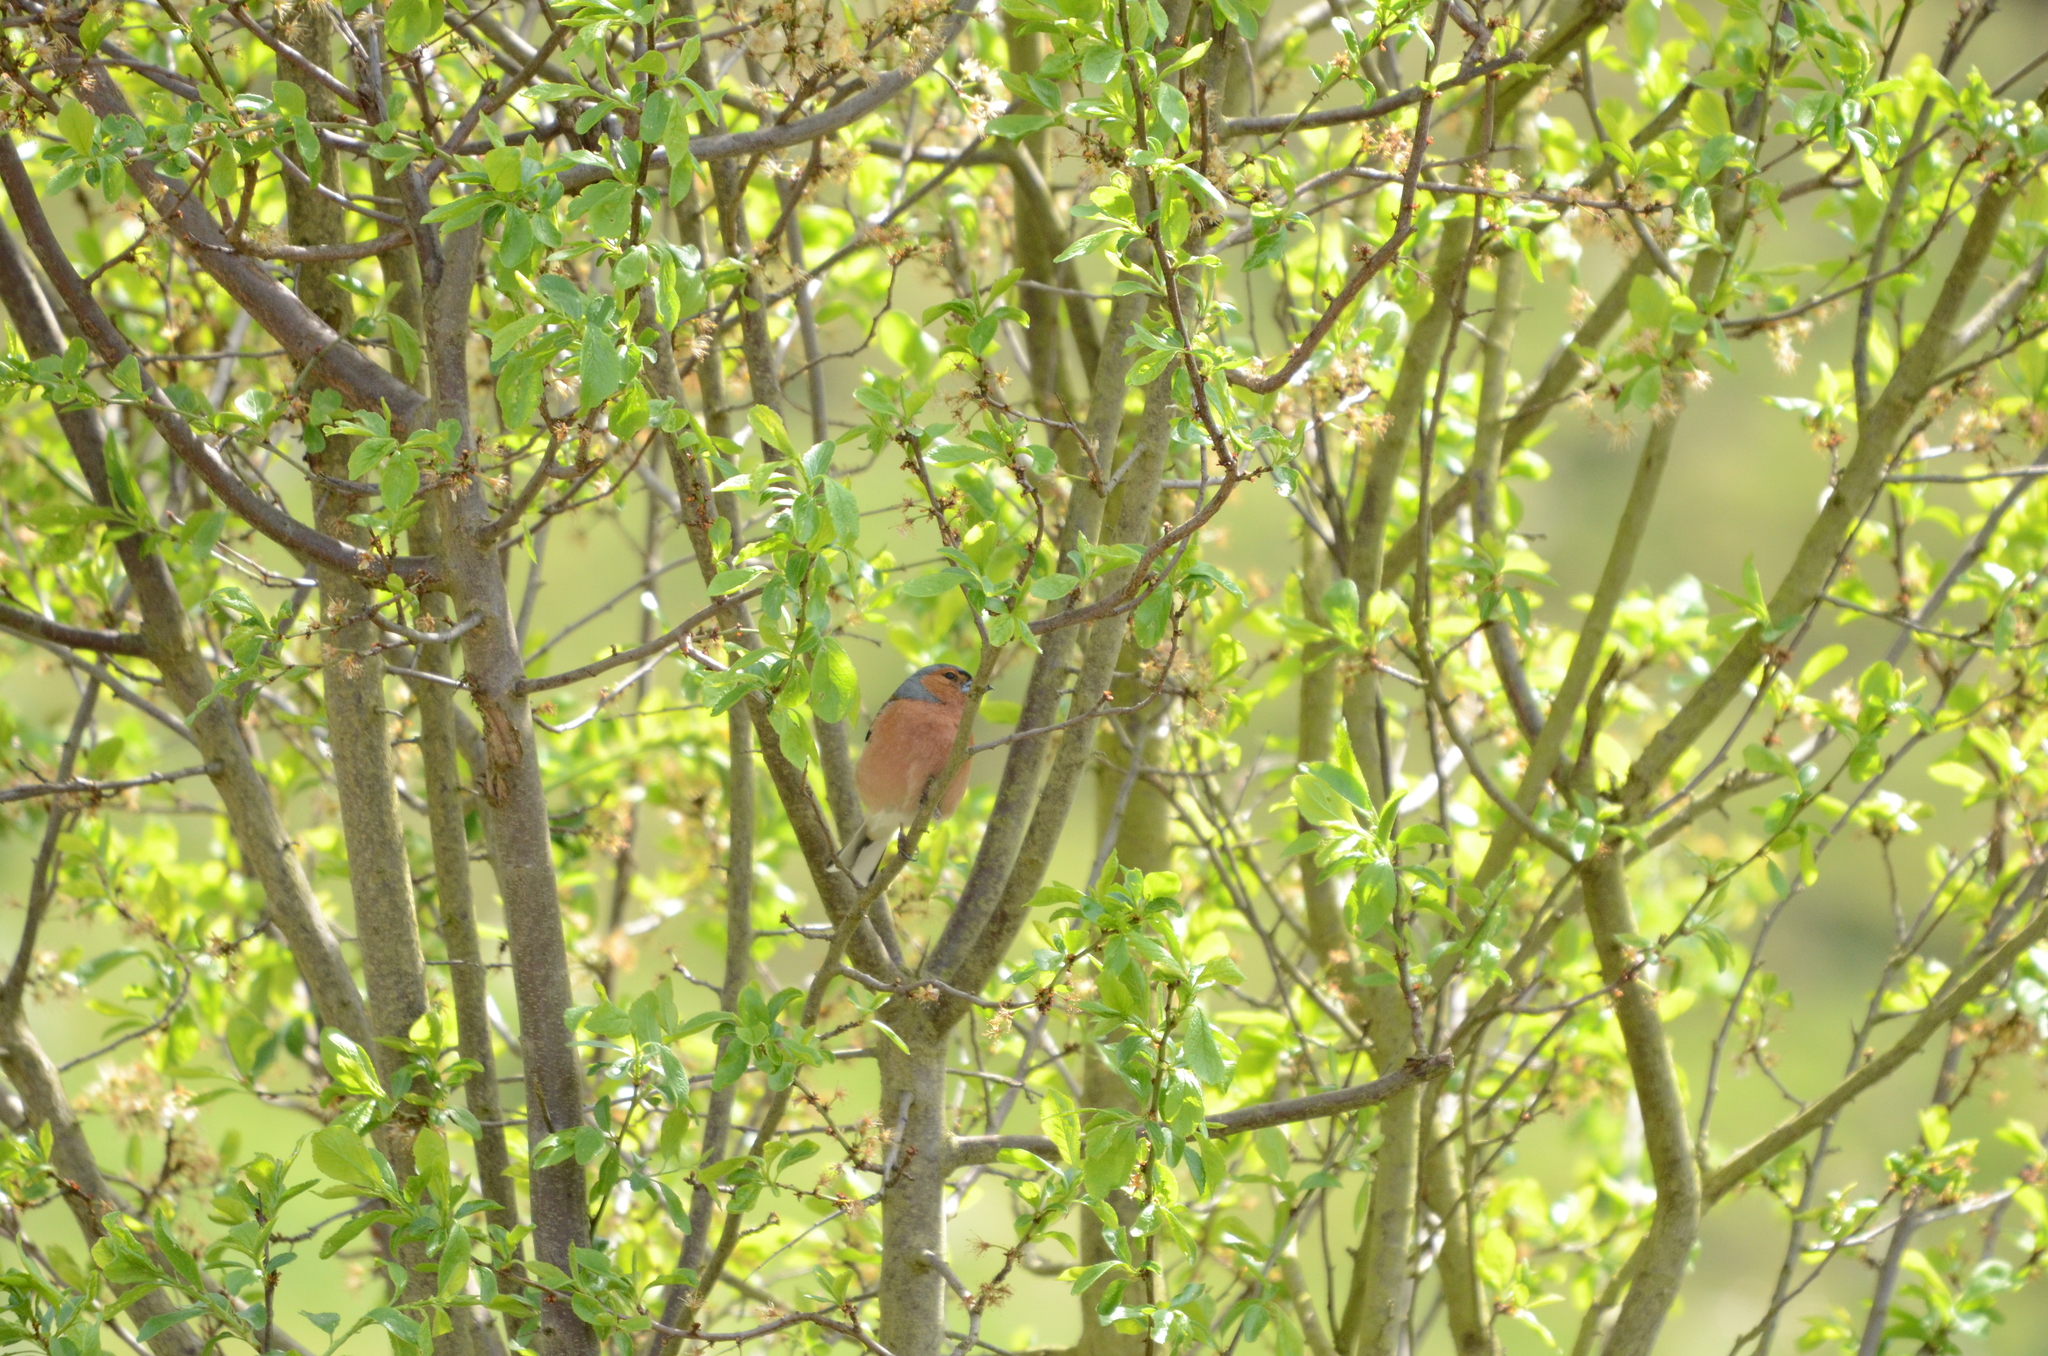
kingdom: Animalia
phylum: Chordata
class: Aves
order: Passeriformes
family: Fringillidae
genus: Fringilla
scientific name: Fringilla coelebs
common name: Common chaffinch
